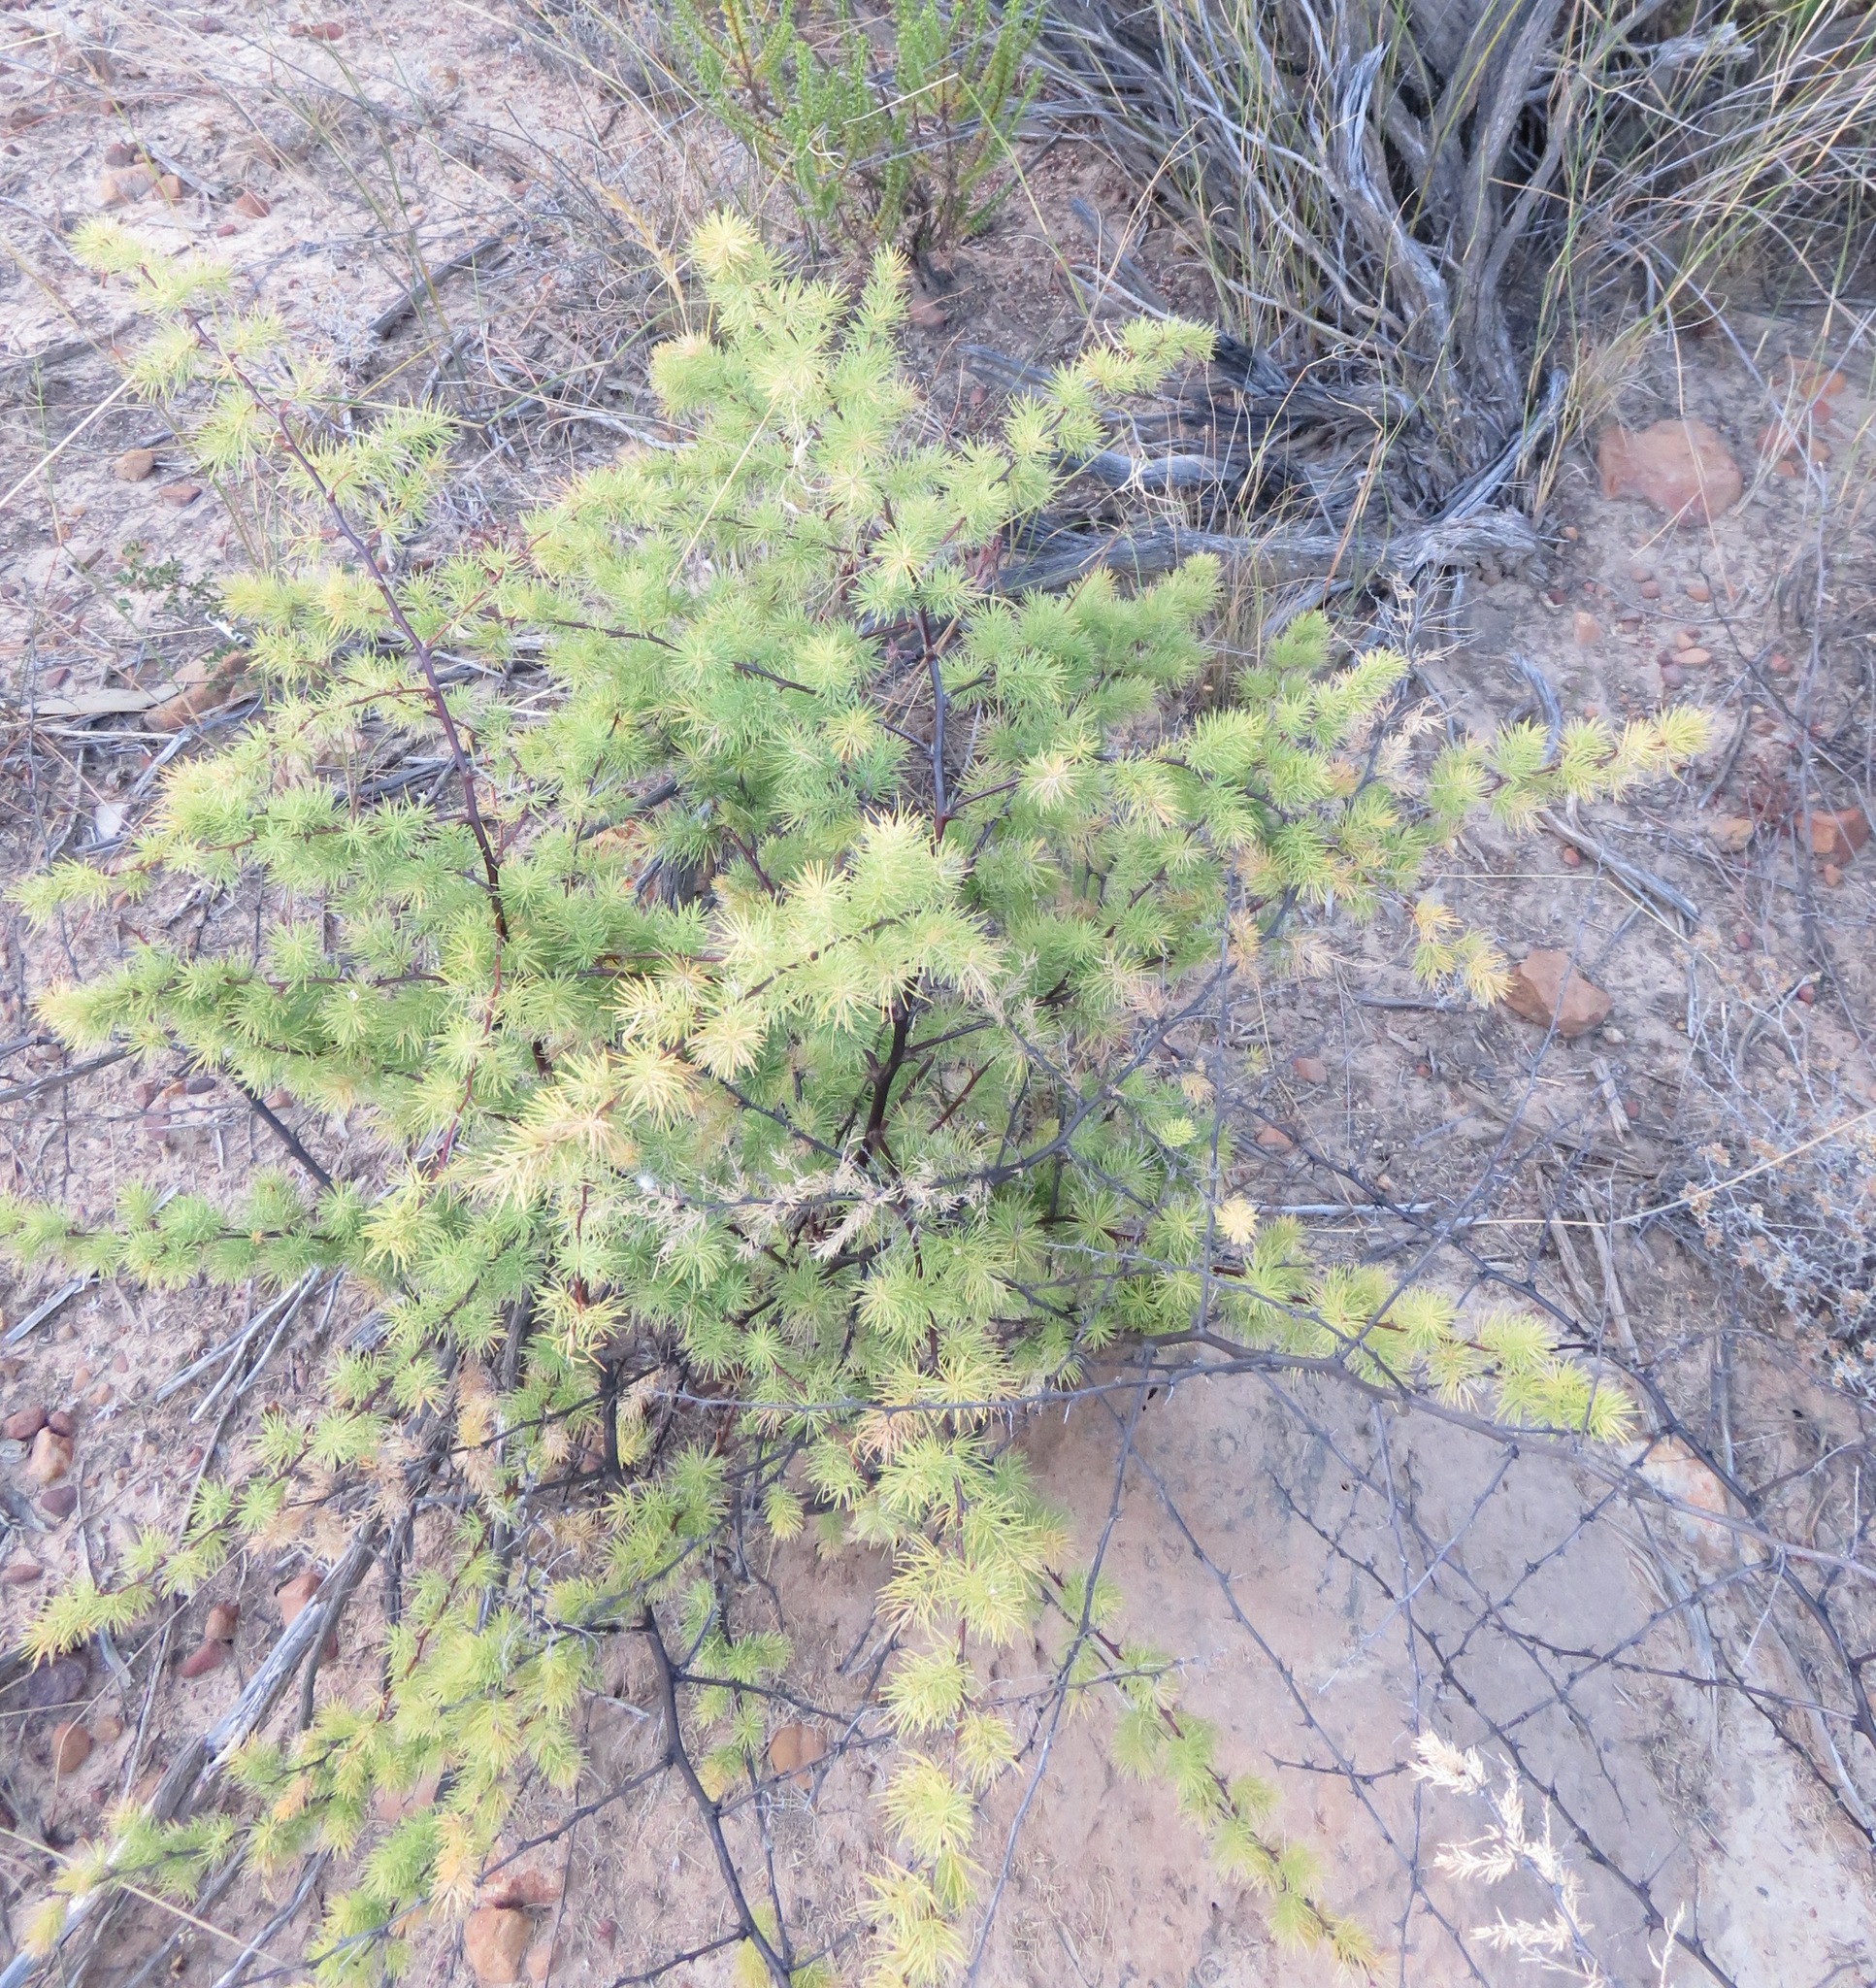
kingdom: Plantae
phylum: Tracheophyta
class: Liliopsida
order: Asparagales
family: Asparagaceae
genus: Asparagus
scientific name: Asparagus rubicundus
